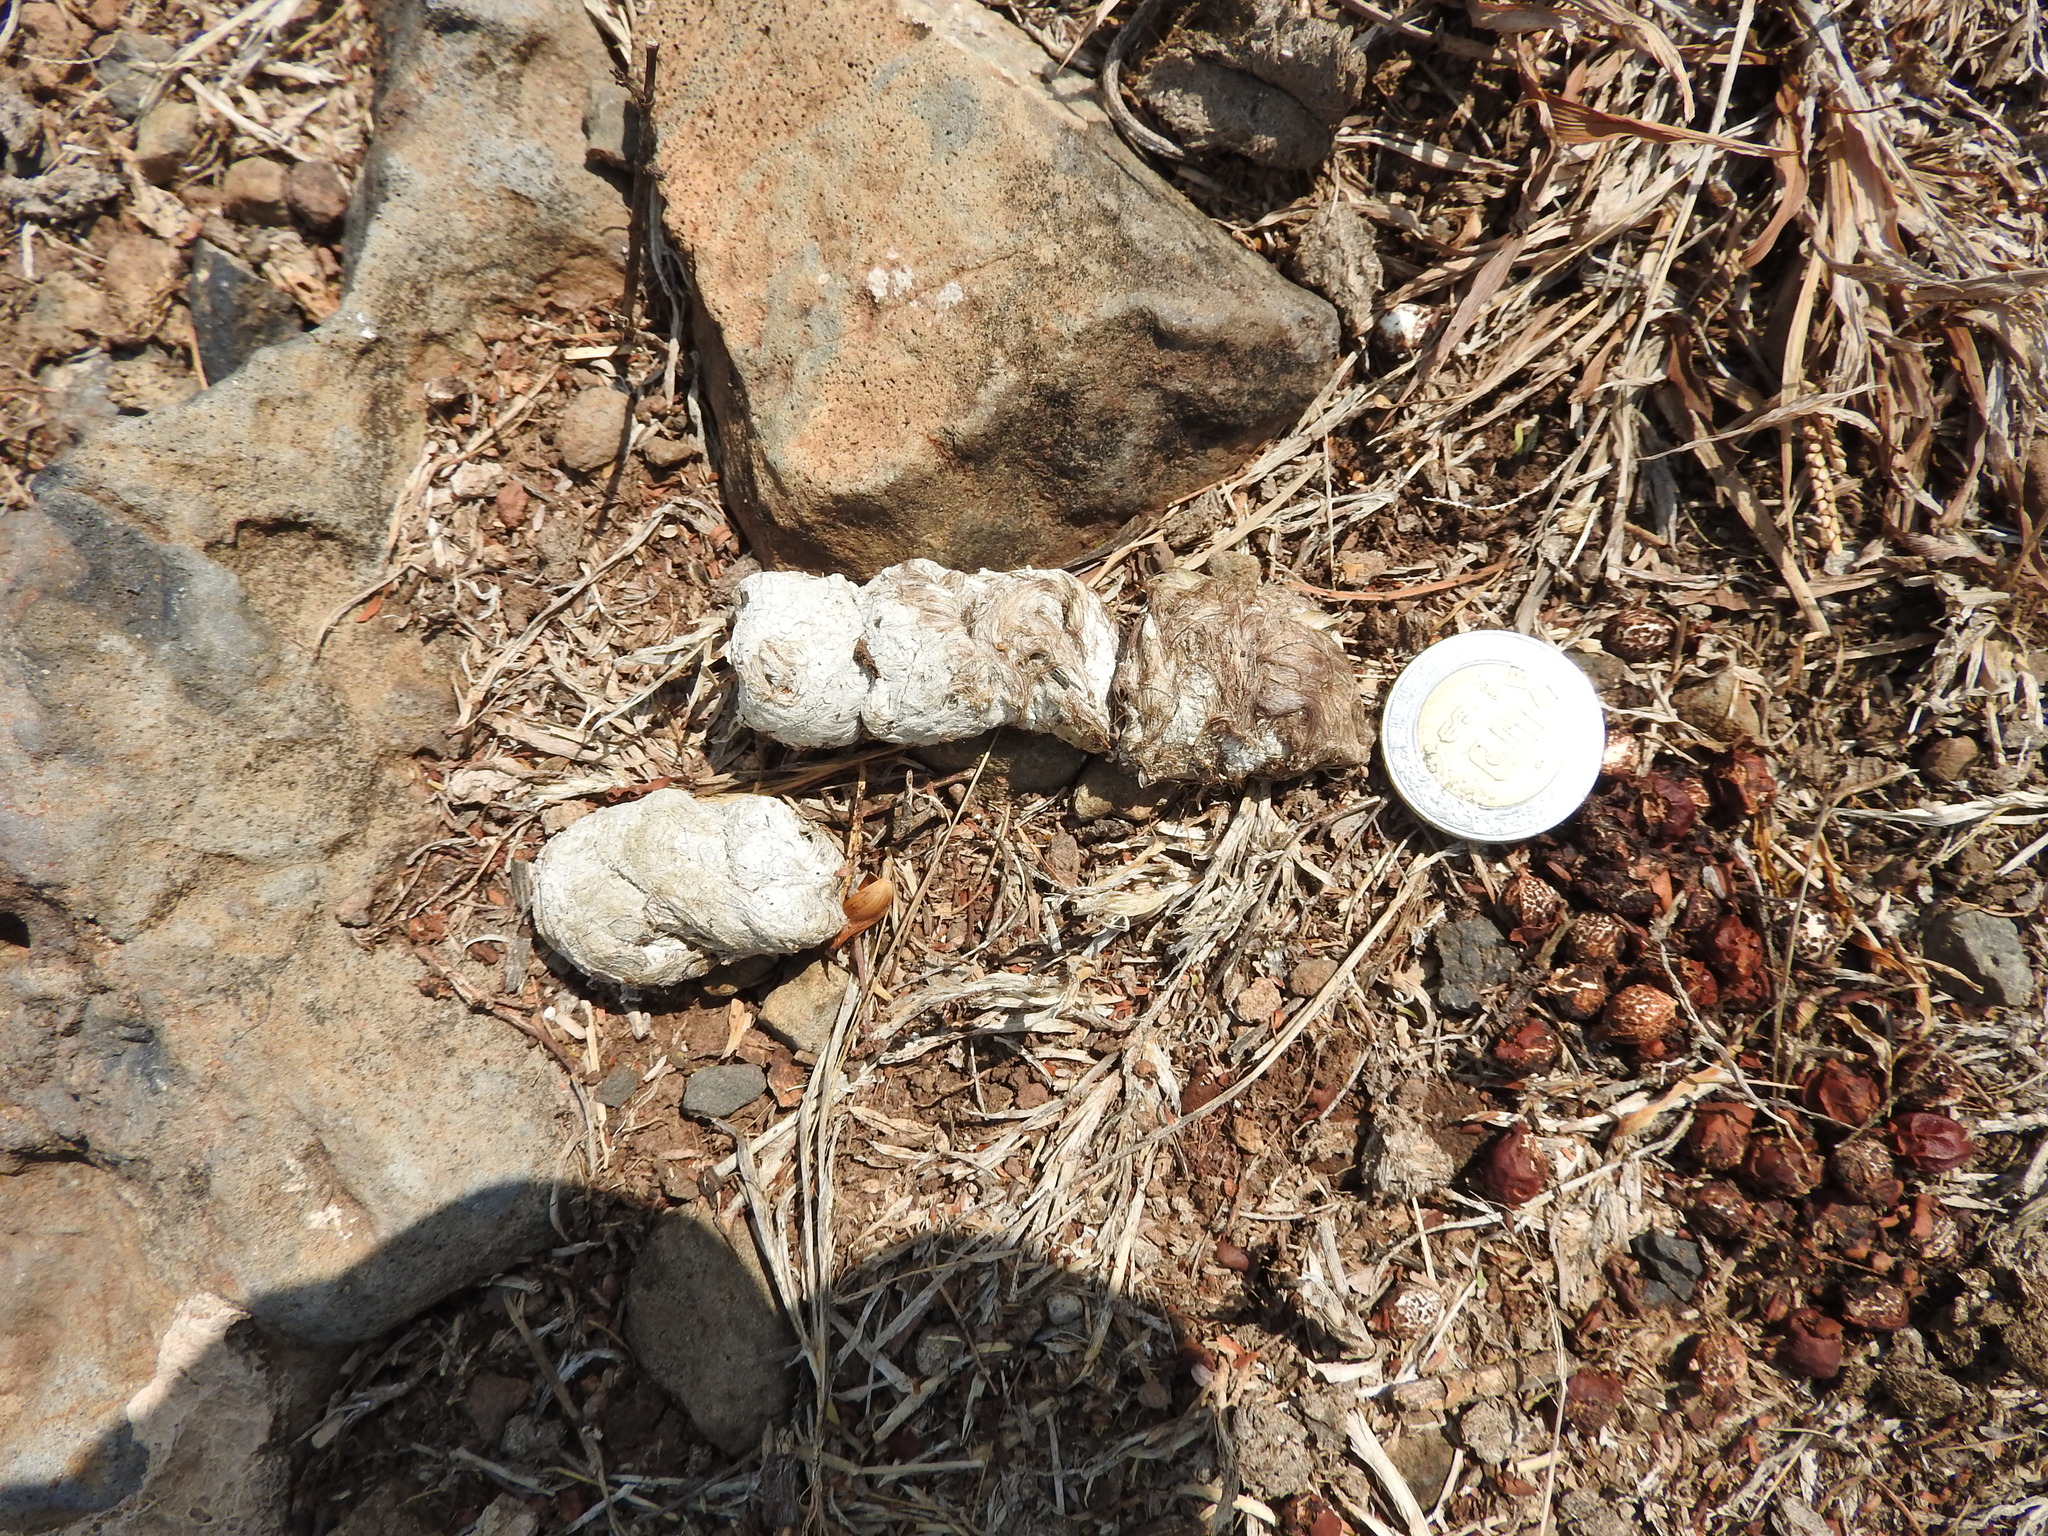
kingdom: Animalia
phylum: Chordata
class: Mammalia
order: Carnivora
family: Felidae
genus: Lynx
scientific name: Lynx rufus
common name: Bobcat
